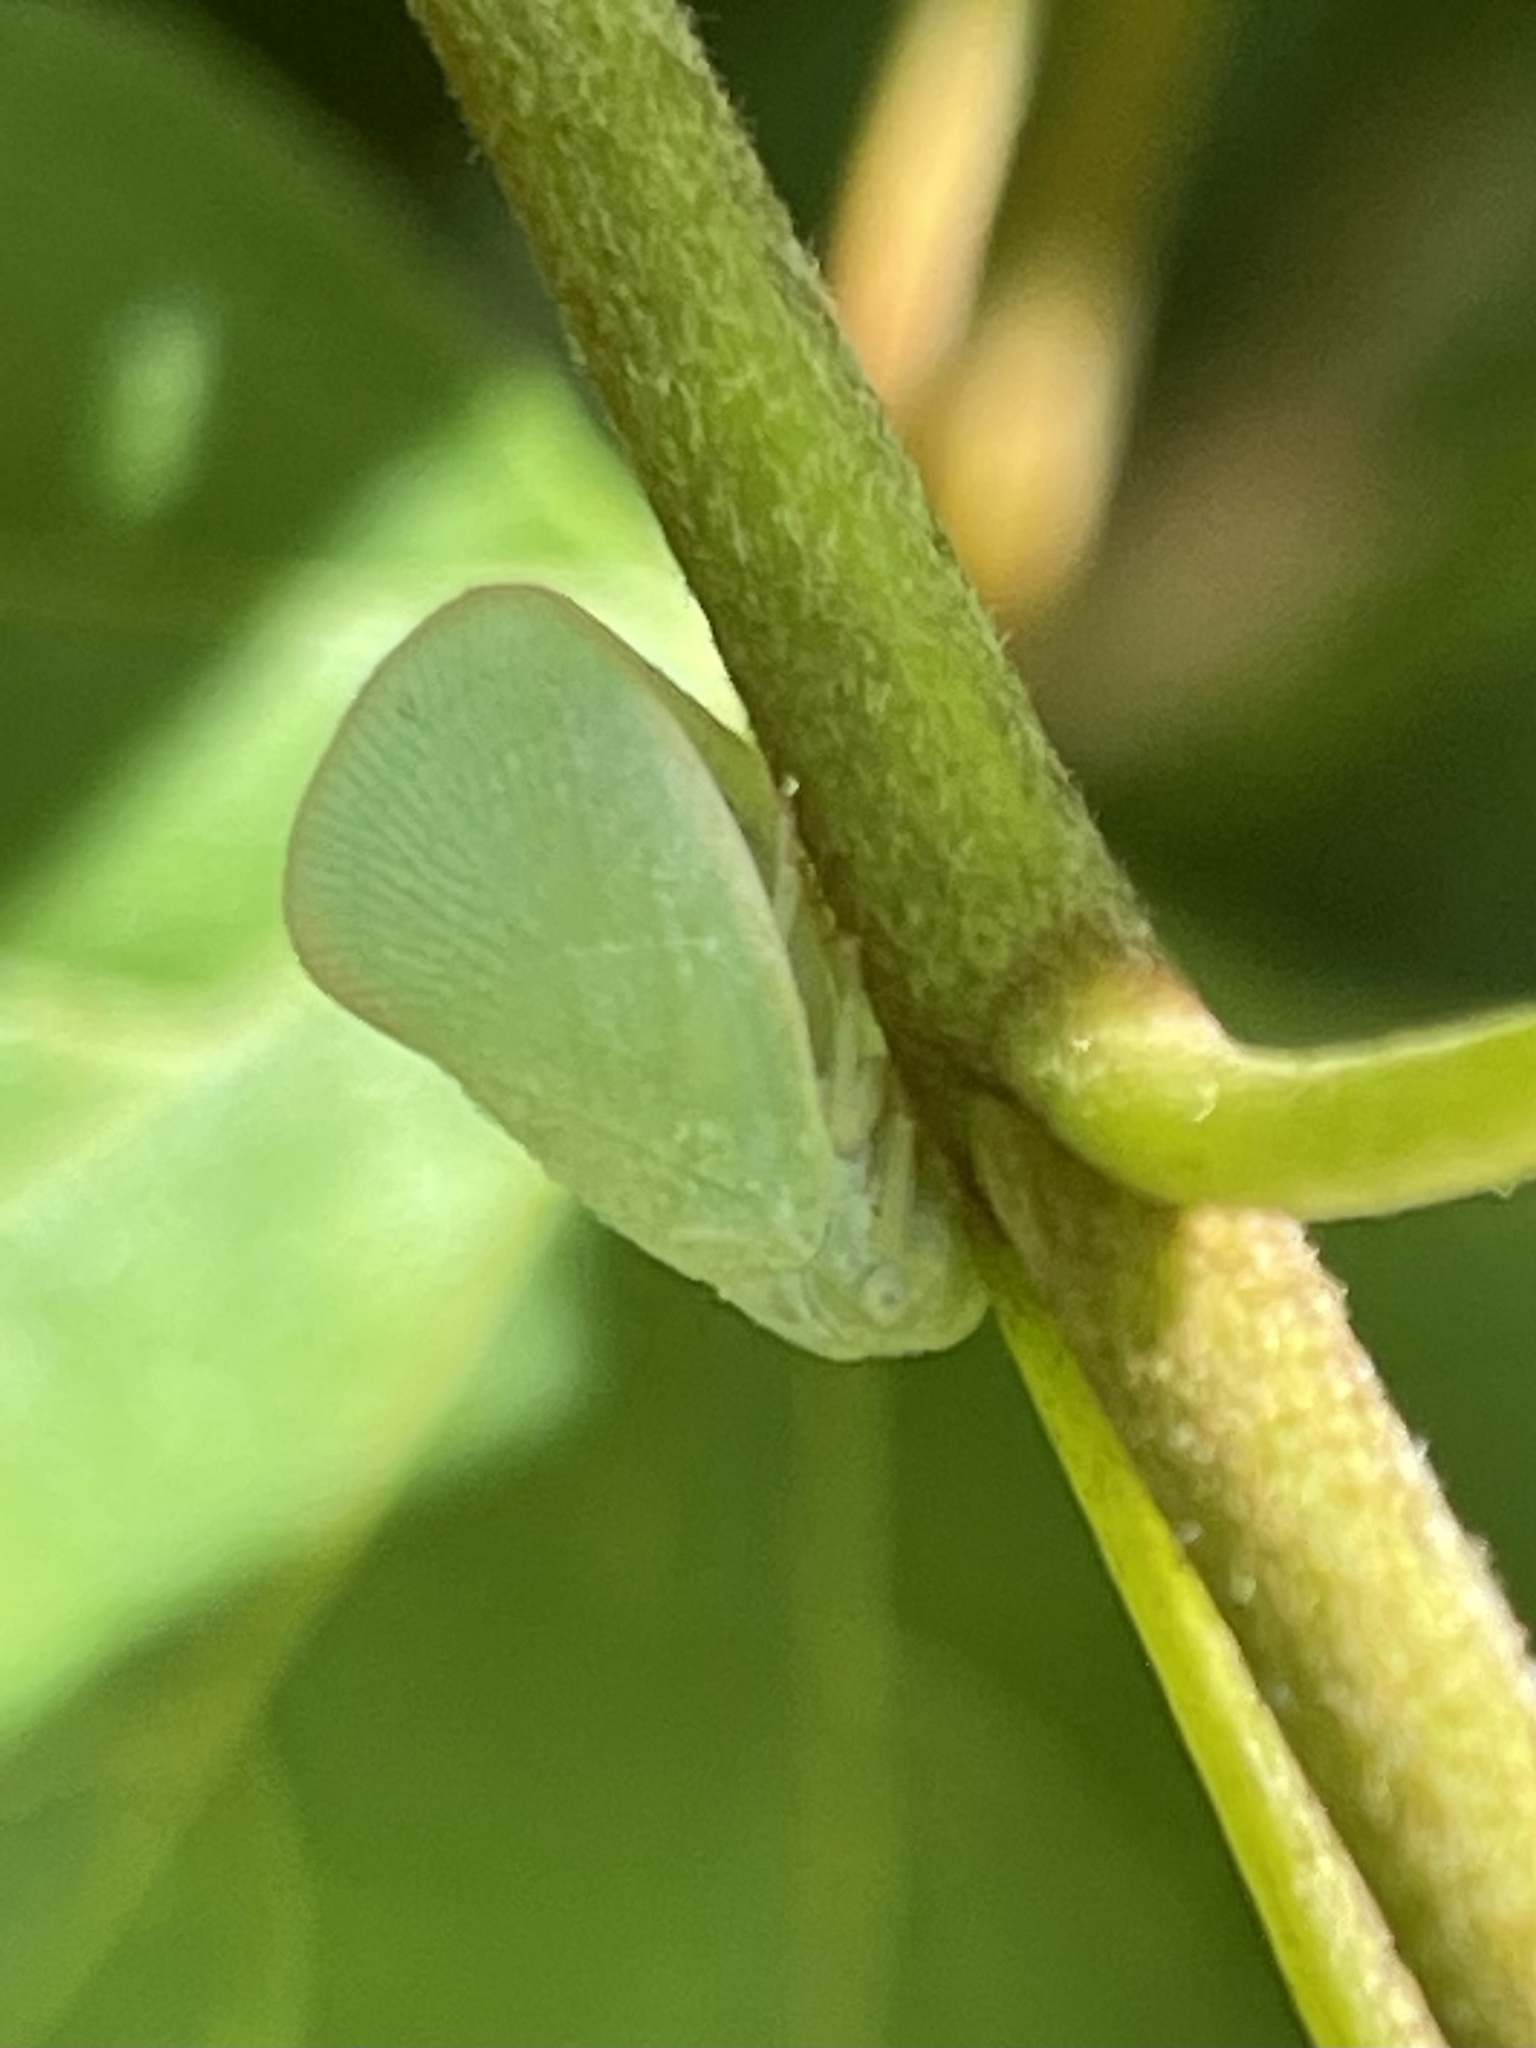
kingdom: Animalia
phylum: Arthropoda
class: Insecta
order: Hemiptera
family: Flatidae
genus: Ormenoides
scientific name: Ormenoides venusta
